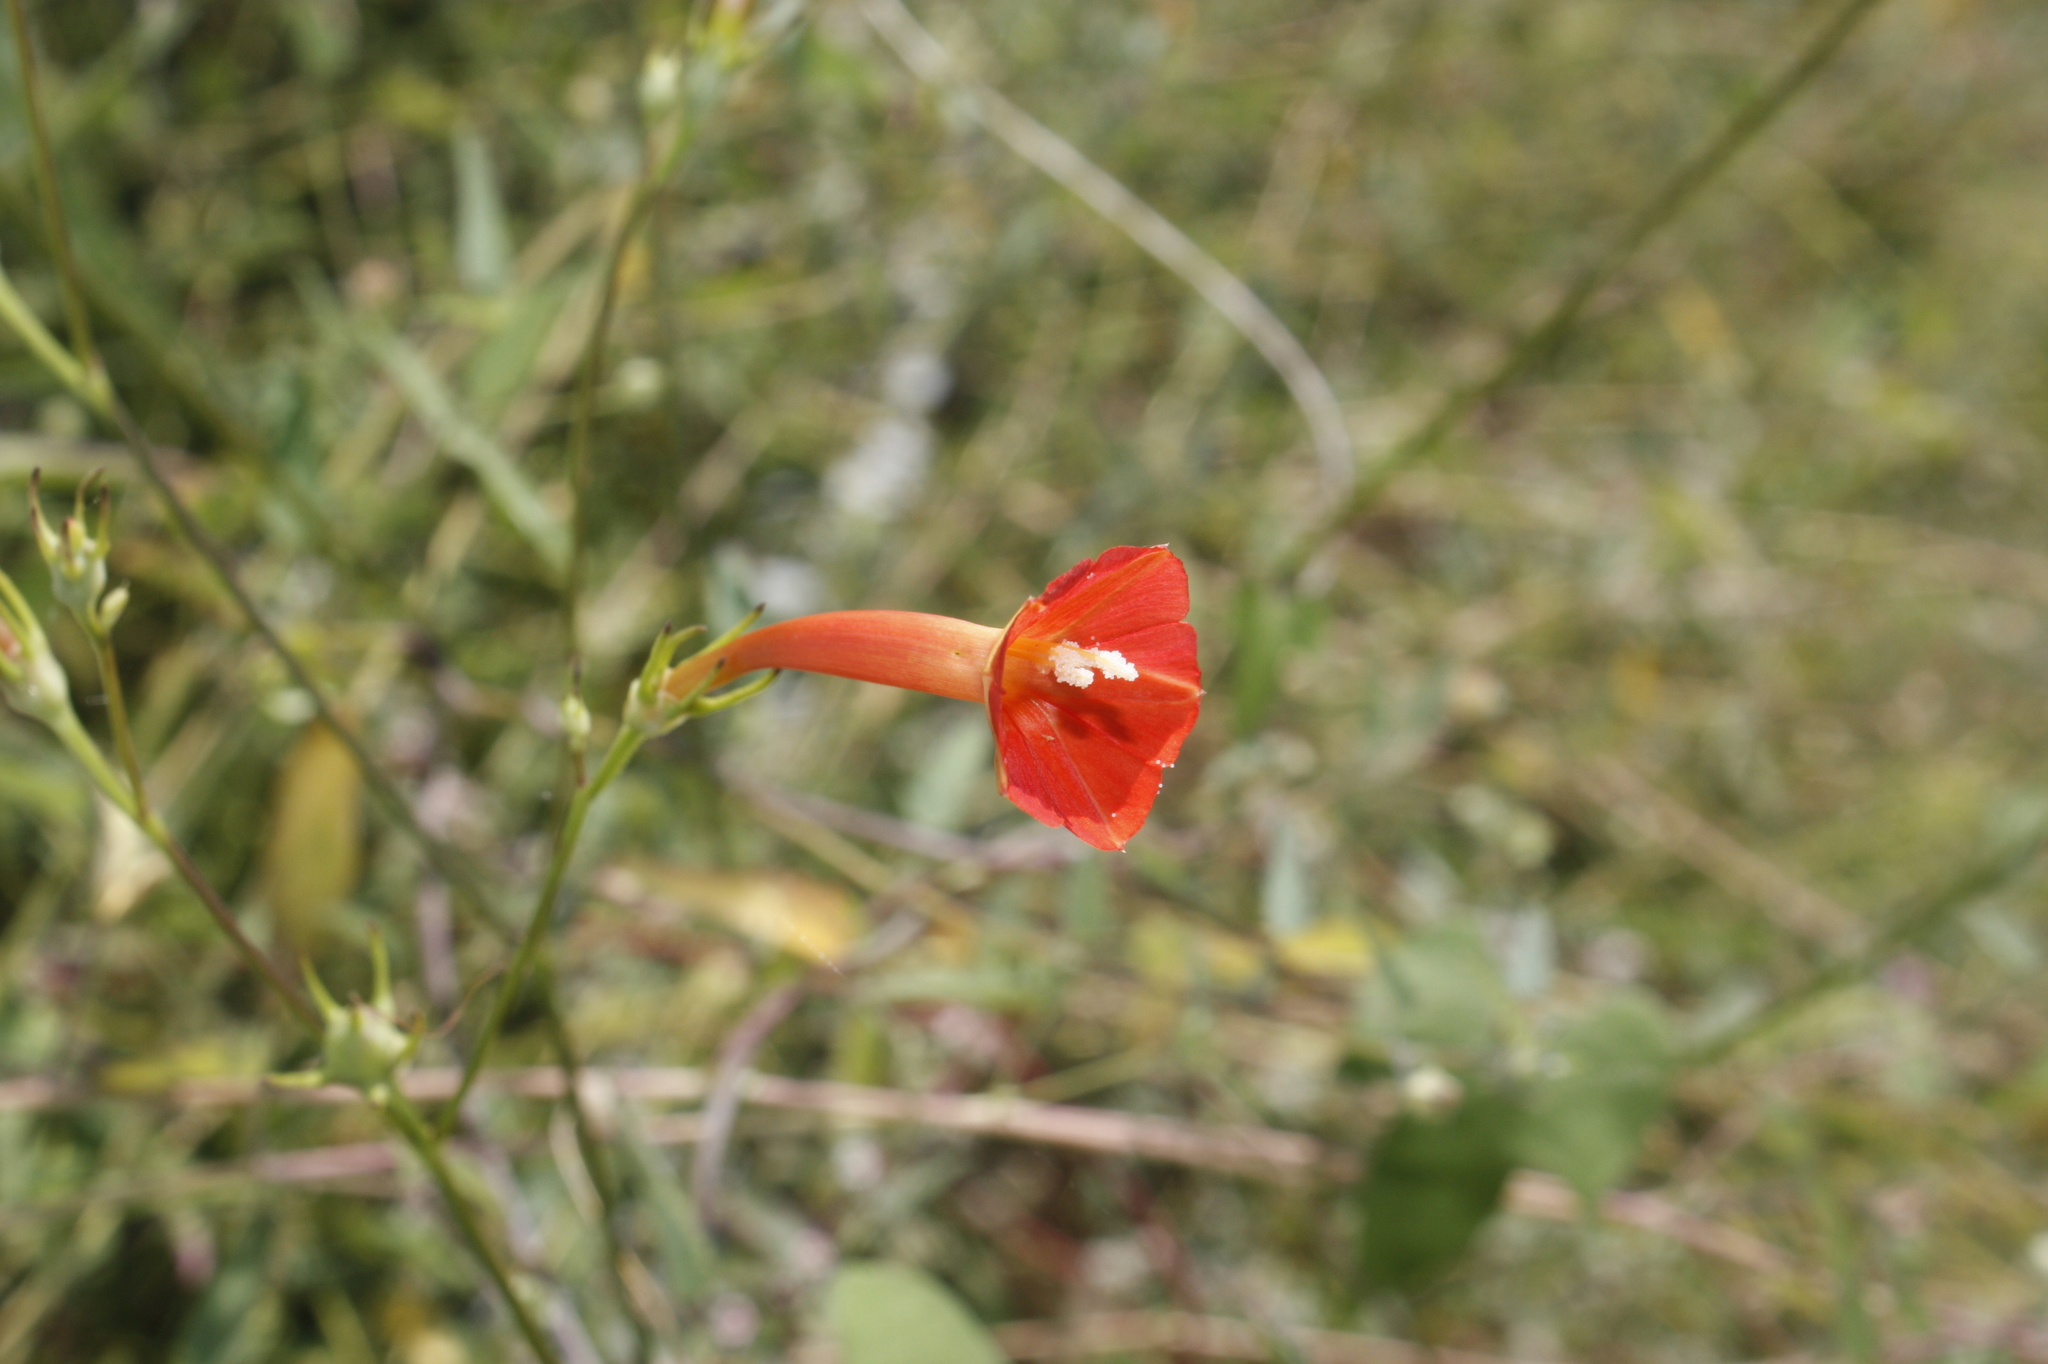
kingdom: Plantae
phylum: Tracheophyta
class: Magnoliopsida
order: Solanales
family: Convolvulaceae
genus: Ipomoea
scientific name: Ipomoea hederifolia
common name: Ivy-leaf morning-glory
